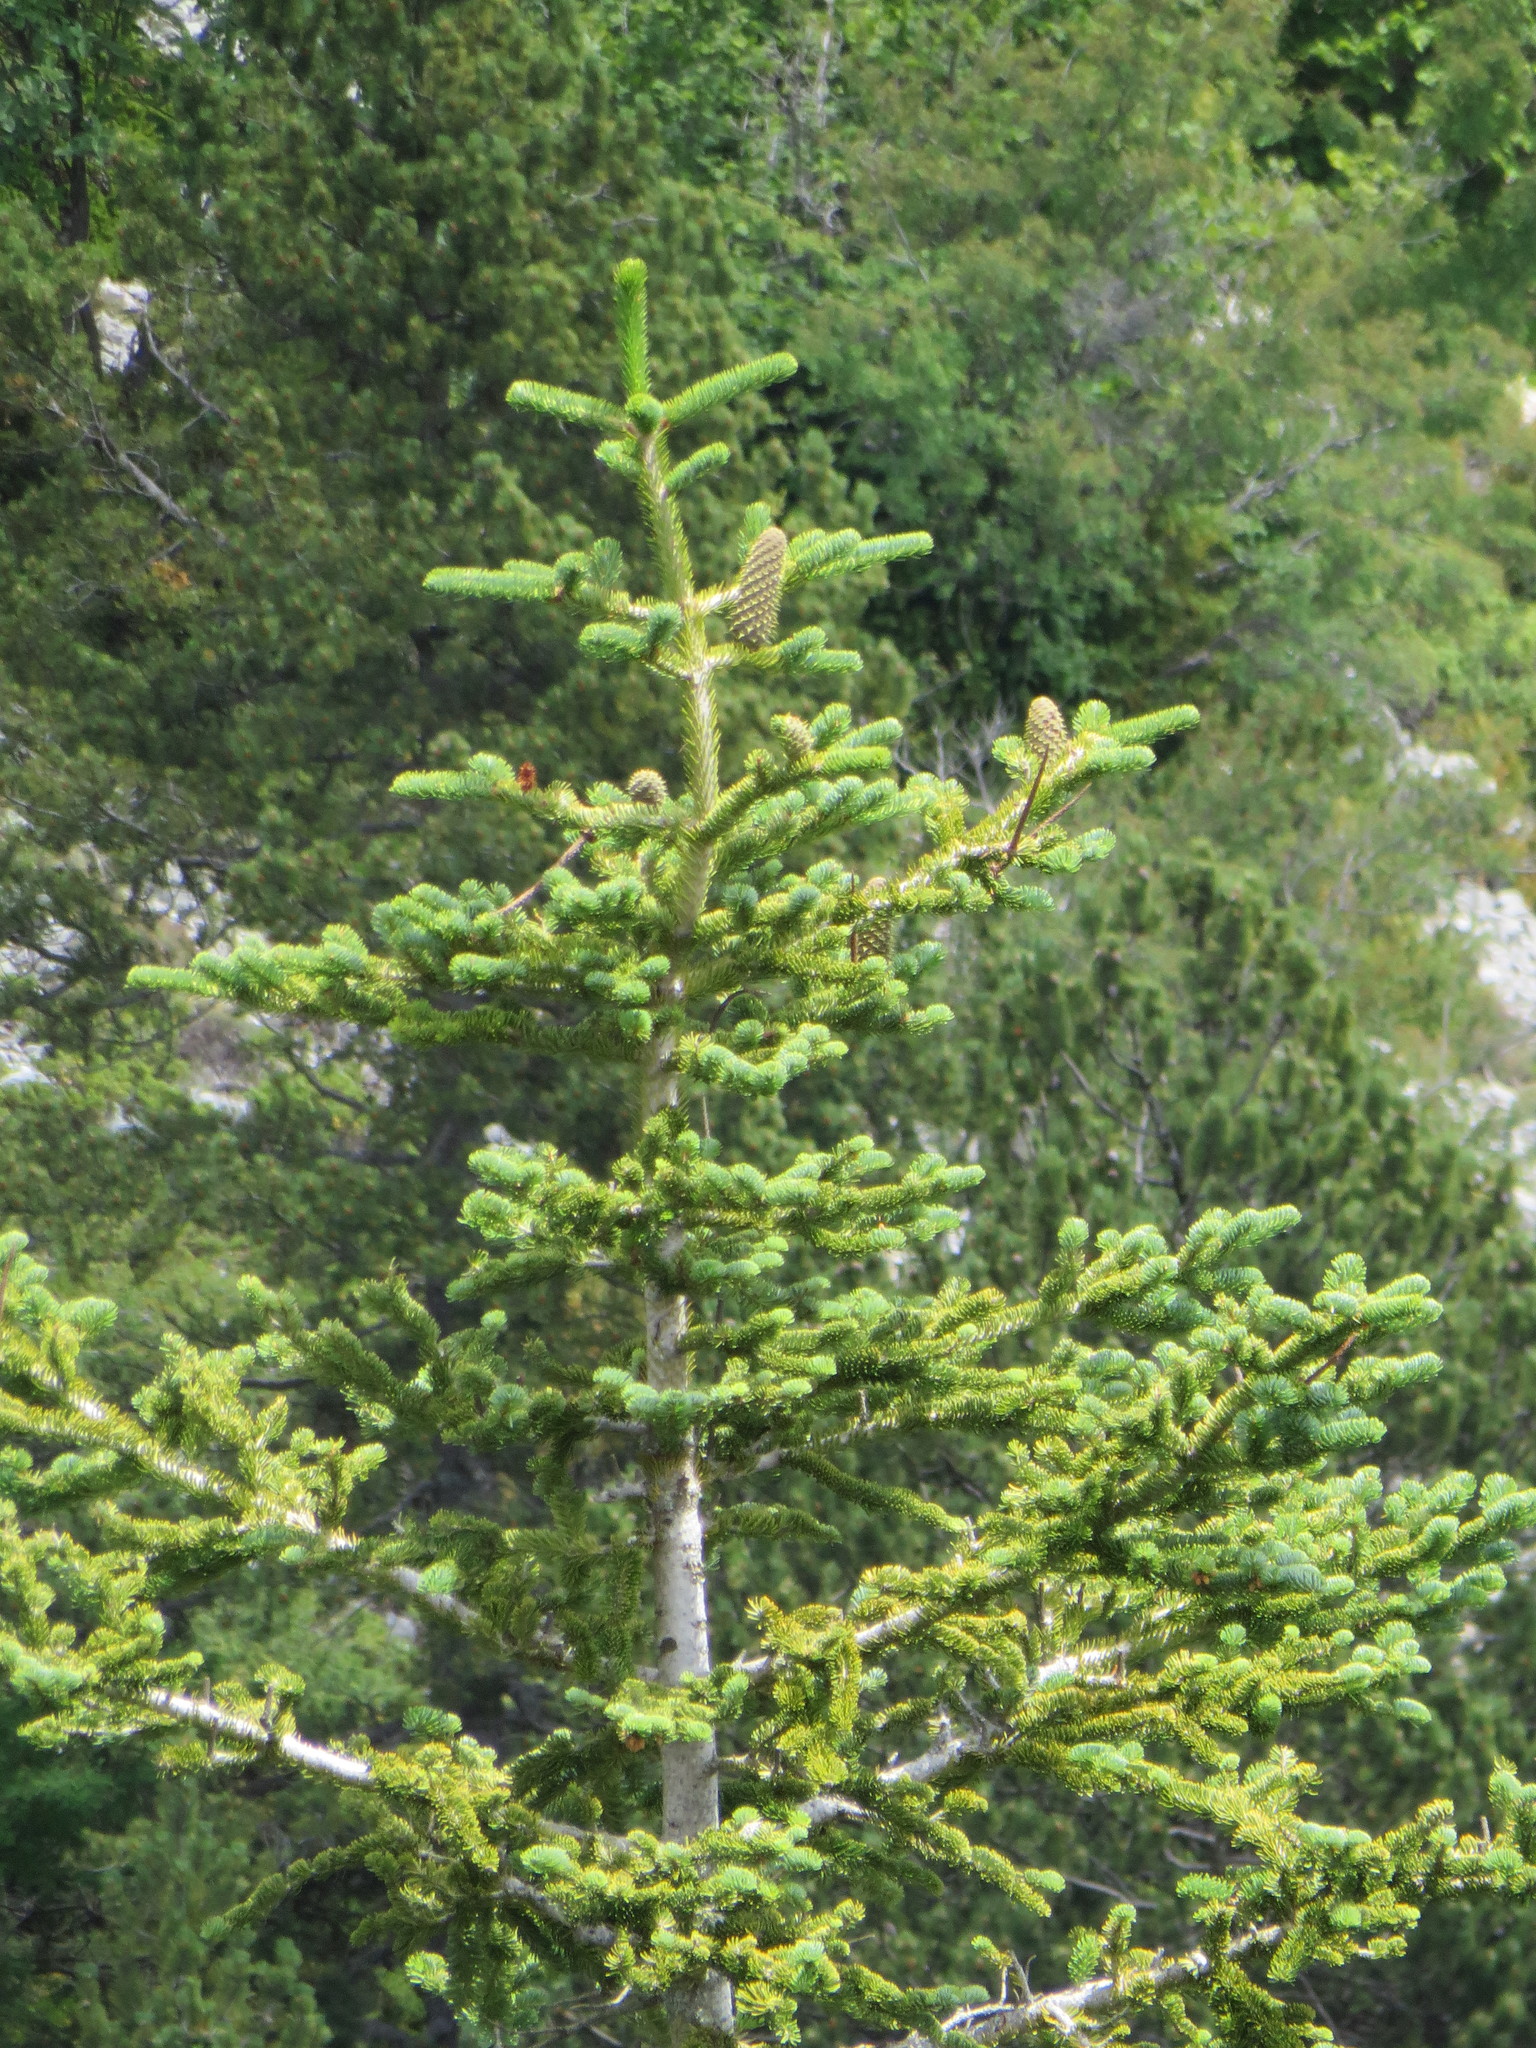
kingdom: Plantae
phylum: Tracheophyta
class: Pinopsida
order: Pinales
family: Pinaceae
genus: Abies
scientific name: Abies alba
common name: Silver fir
